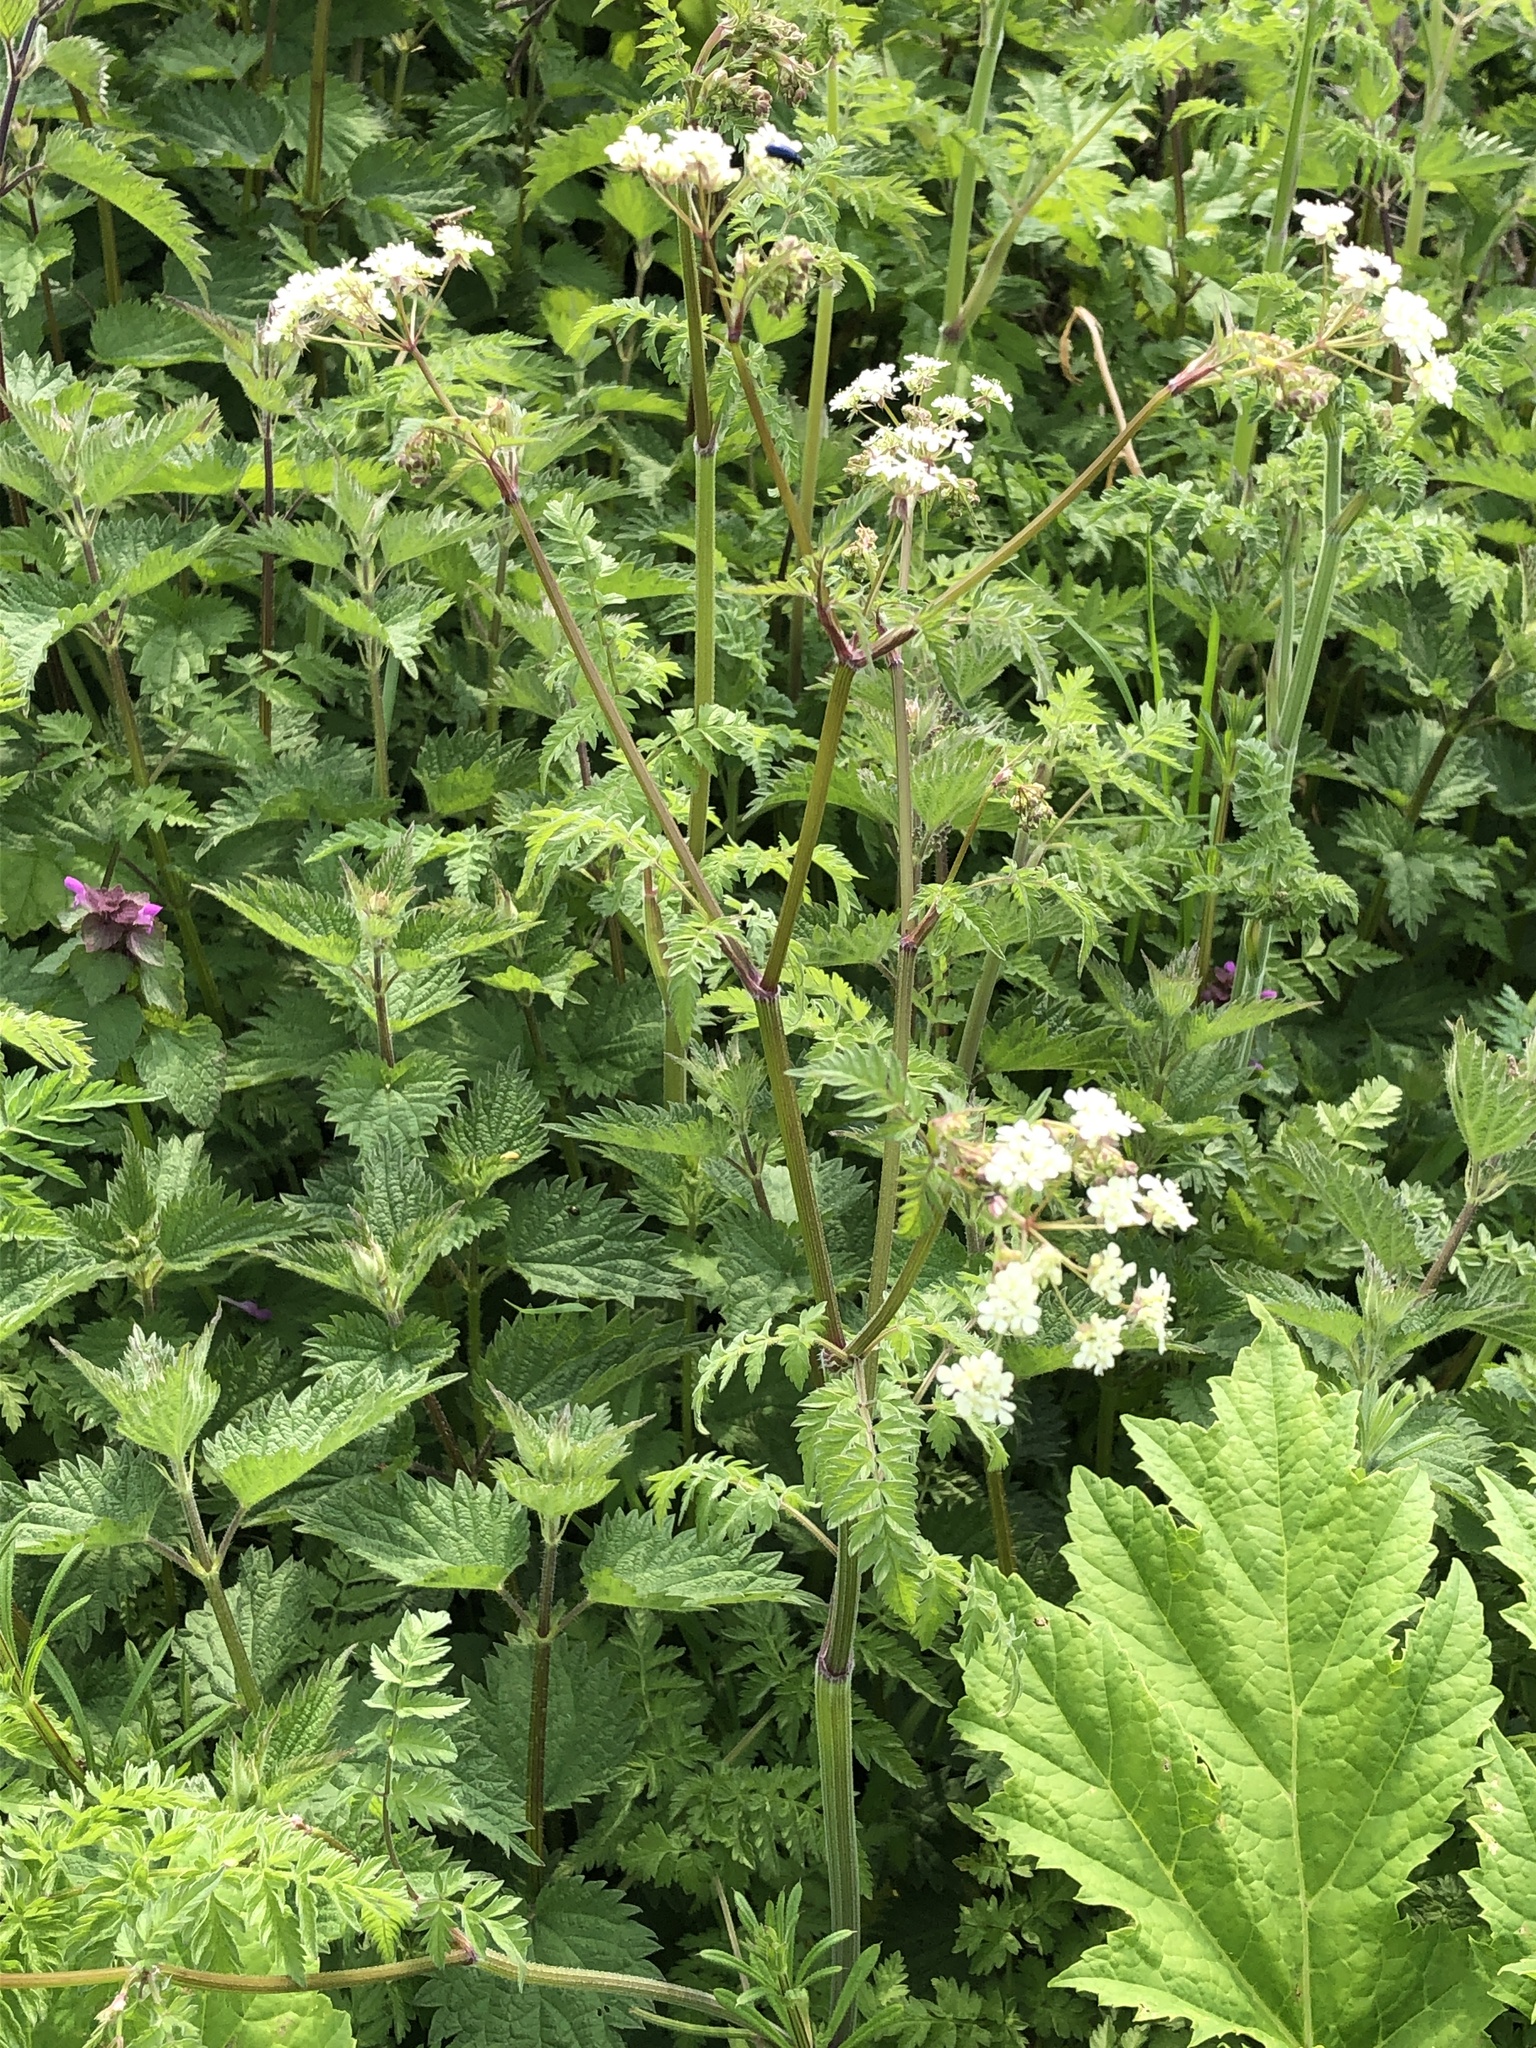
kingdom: Plantae
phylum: Tracheophyta
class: Magnoliopsida
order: Apiales
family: Apiaceae
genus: Anthriscus
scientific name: Anthriscus sylvestris
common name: Cow parsley
